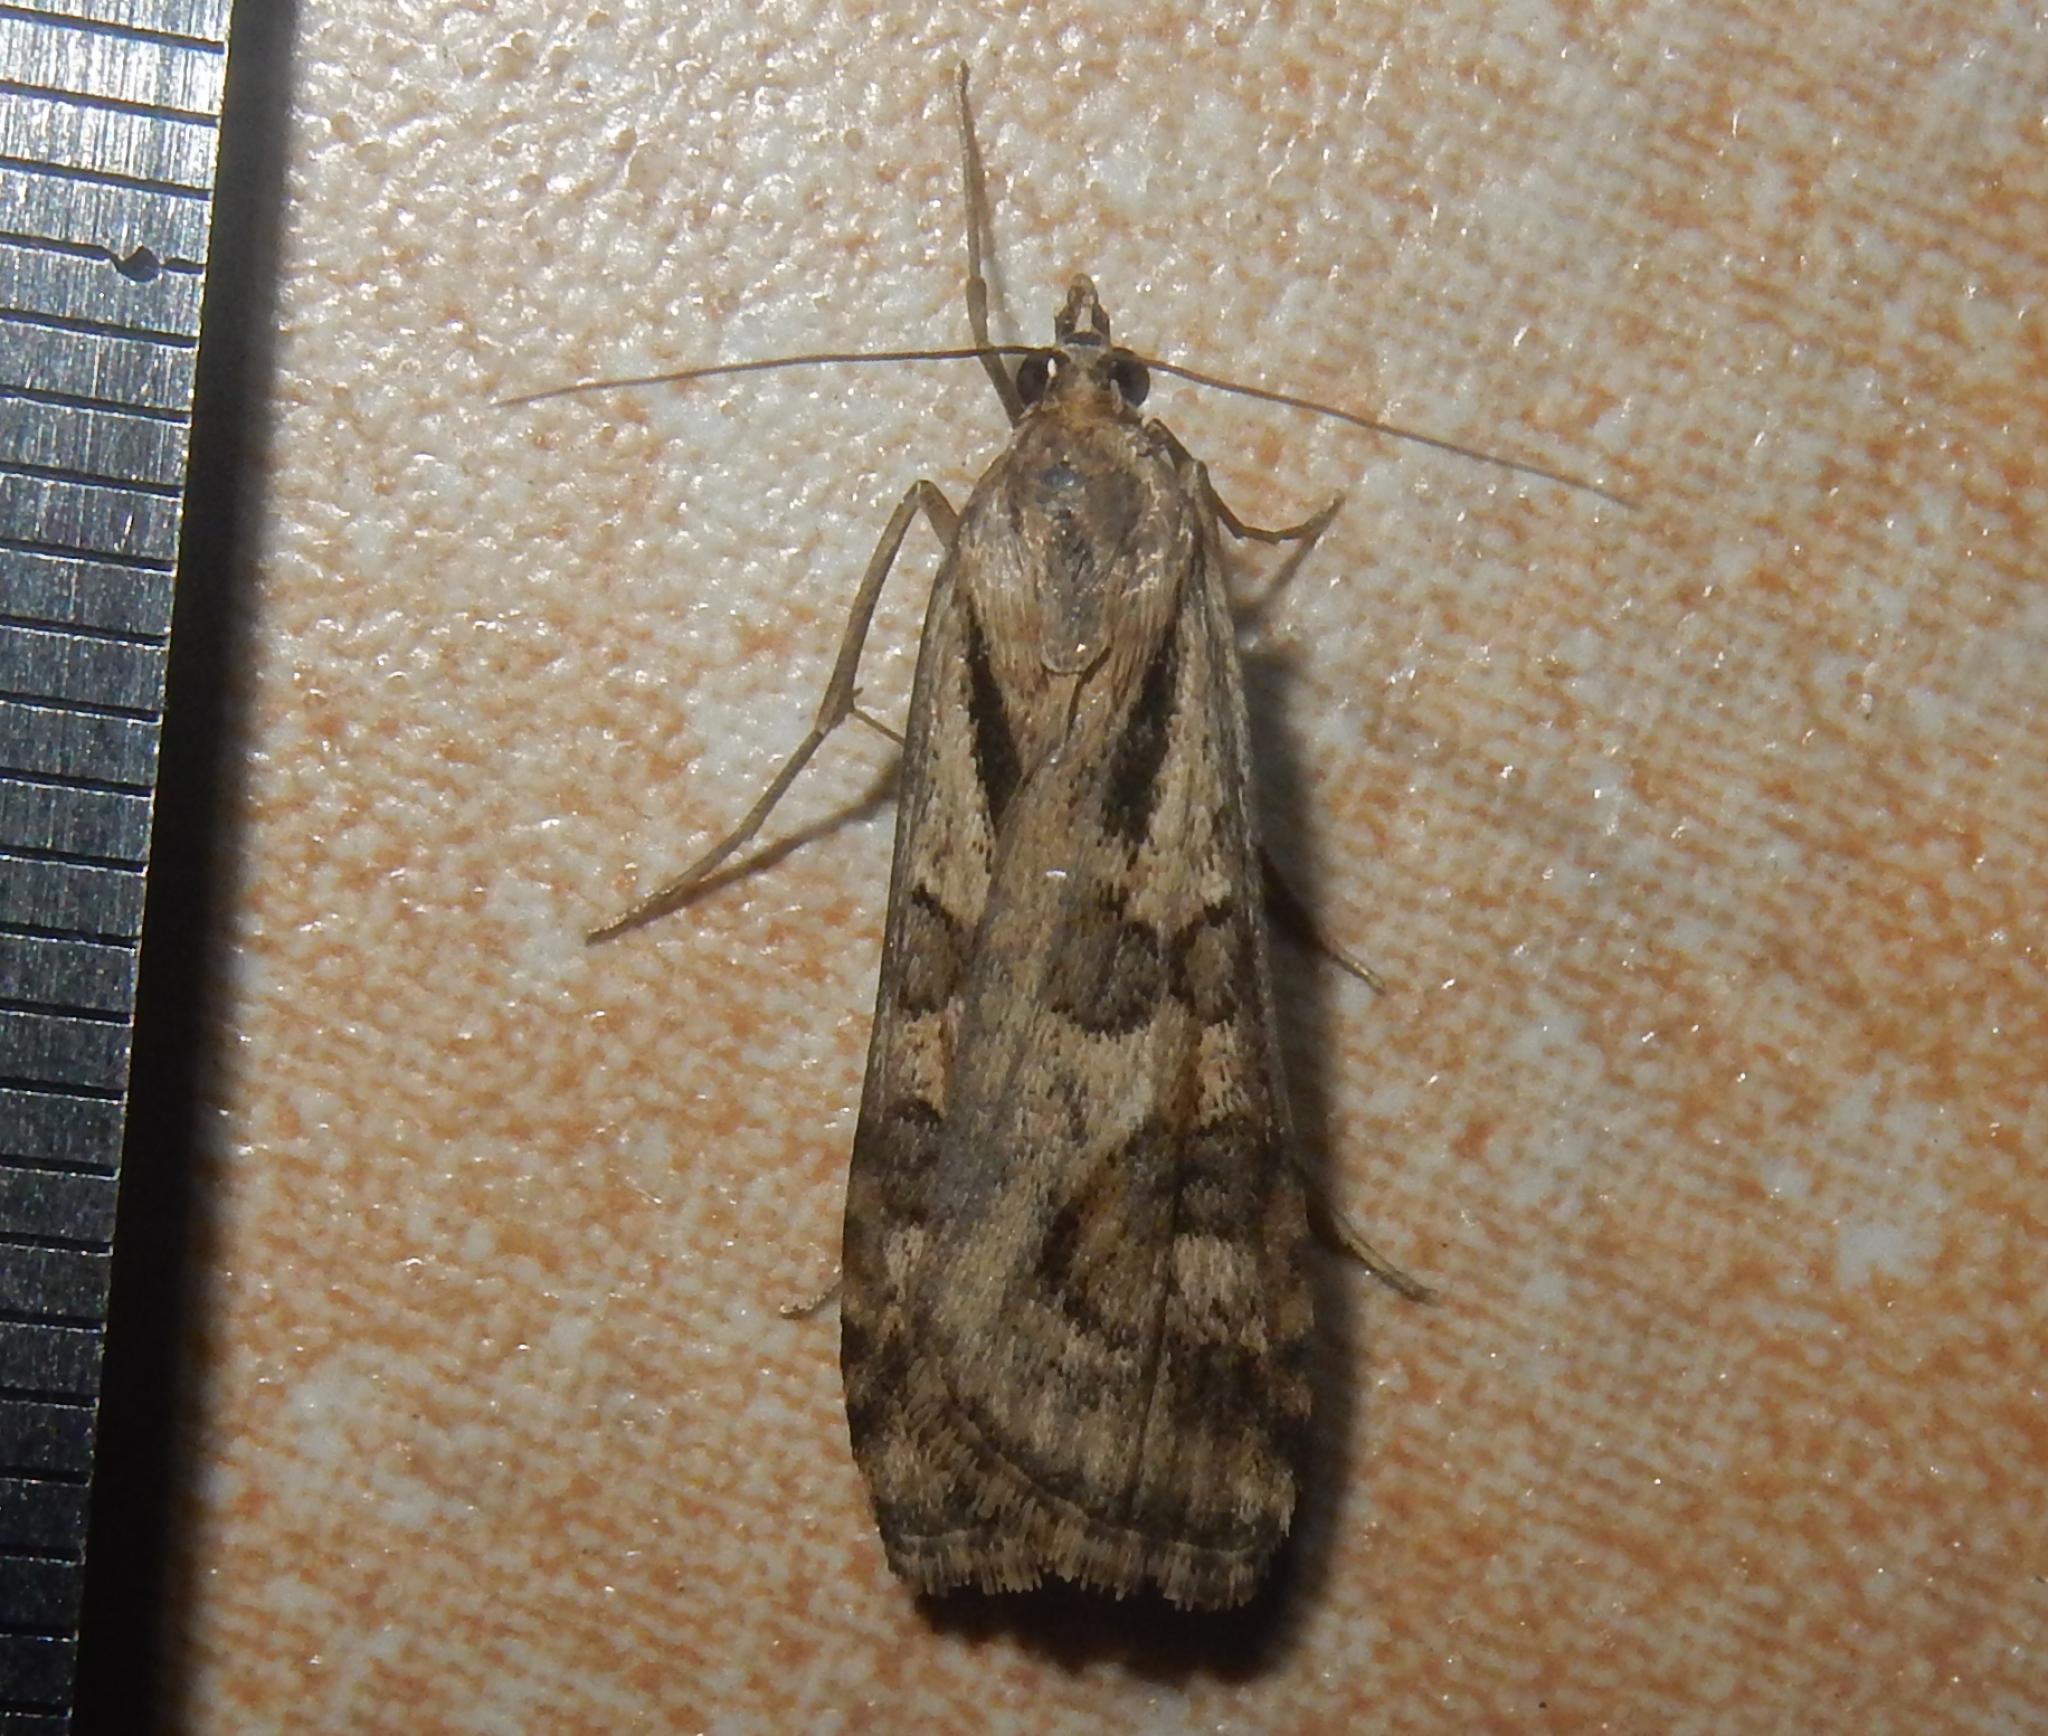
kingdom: Animalia
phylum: Arthropoda
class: Insecta
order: Lepidoptera
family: Crambidae
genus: Nomophila
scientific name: Nomophila noctuella
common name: Rush veneer
